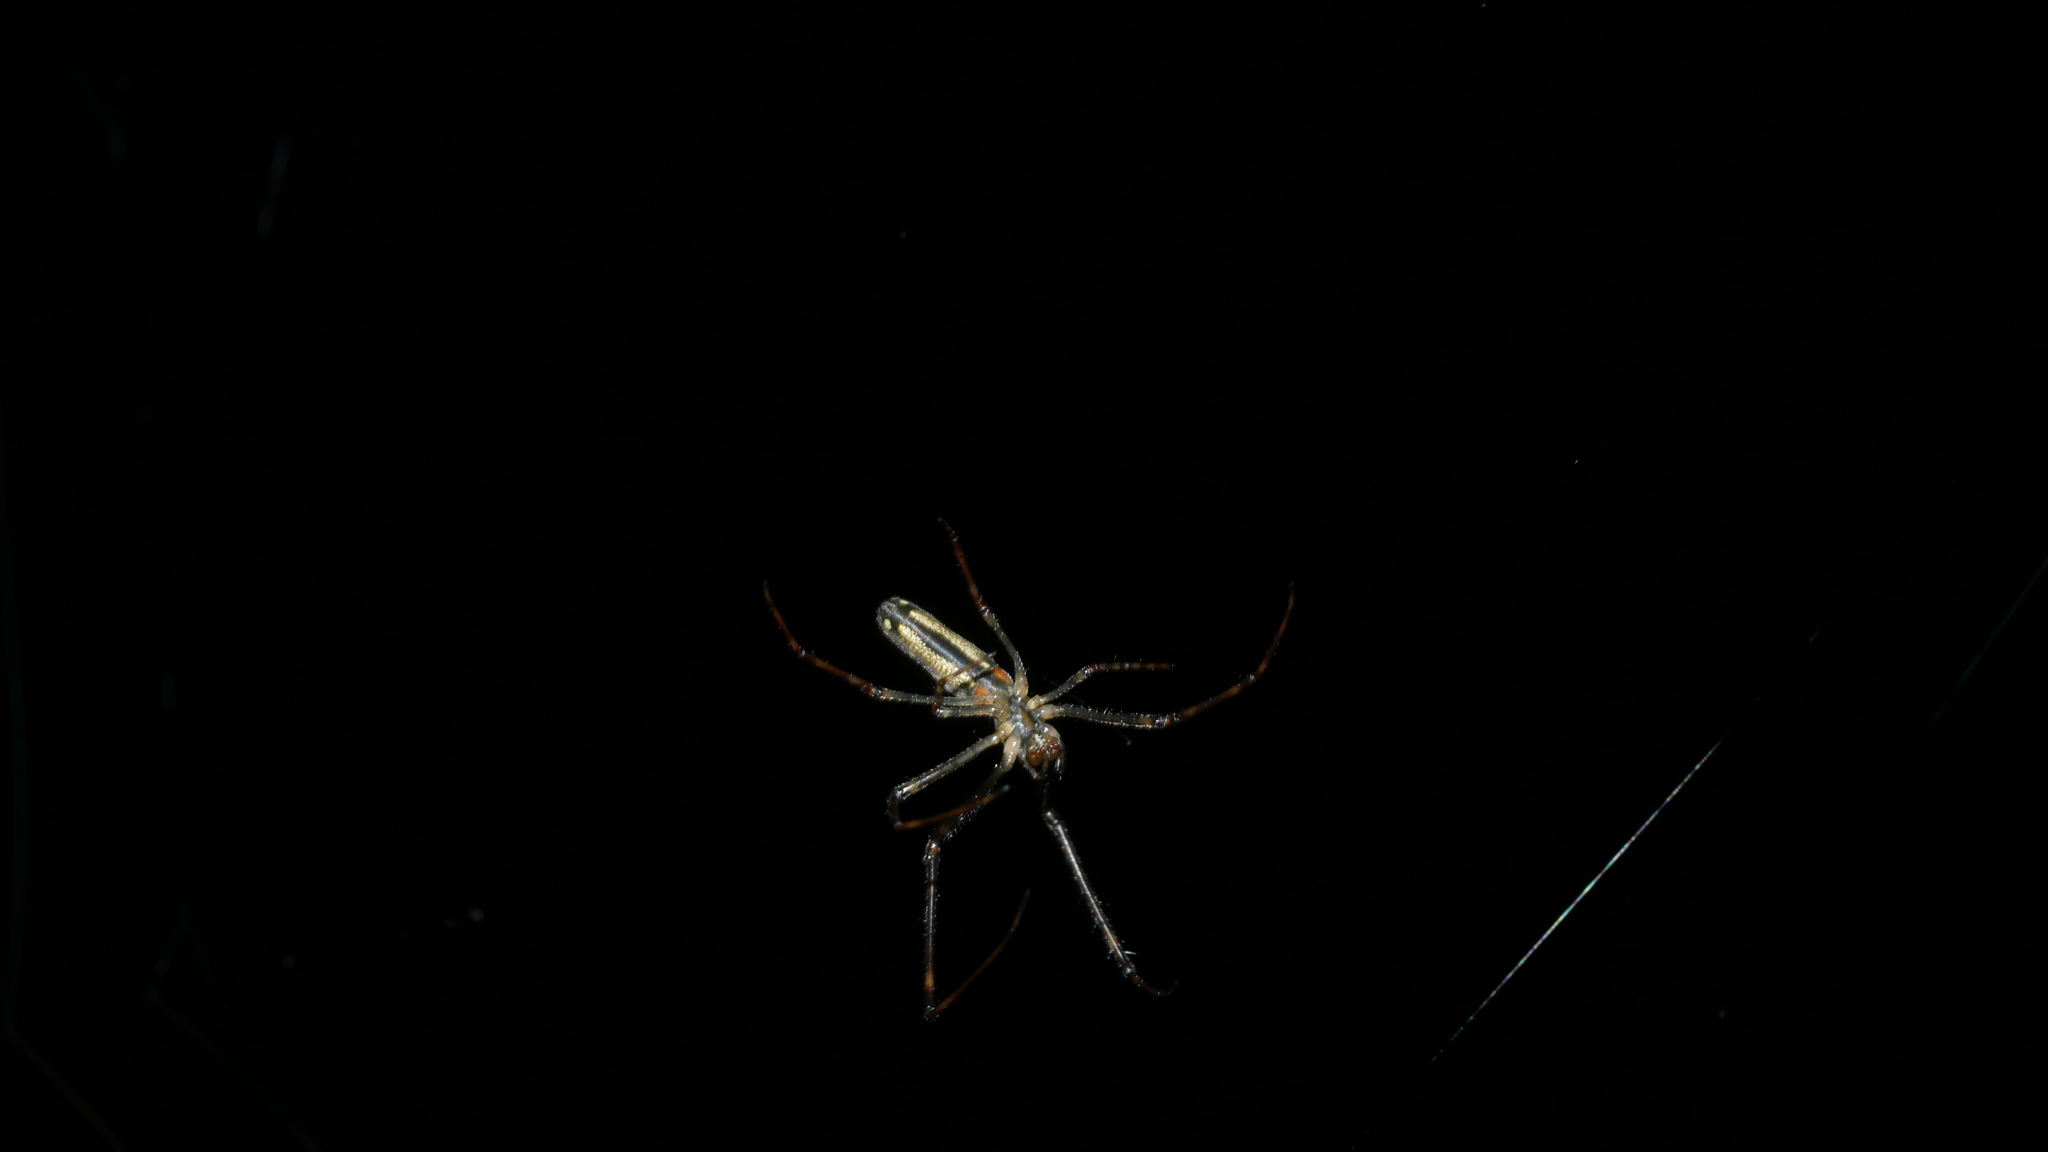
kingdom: Animalia
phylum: Arthropoda
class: Arachnida
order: Araneae
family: Tetragnathidae
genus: Tetragnatha
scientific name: Tetragnatha
